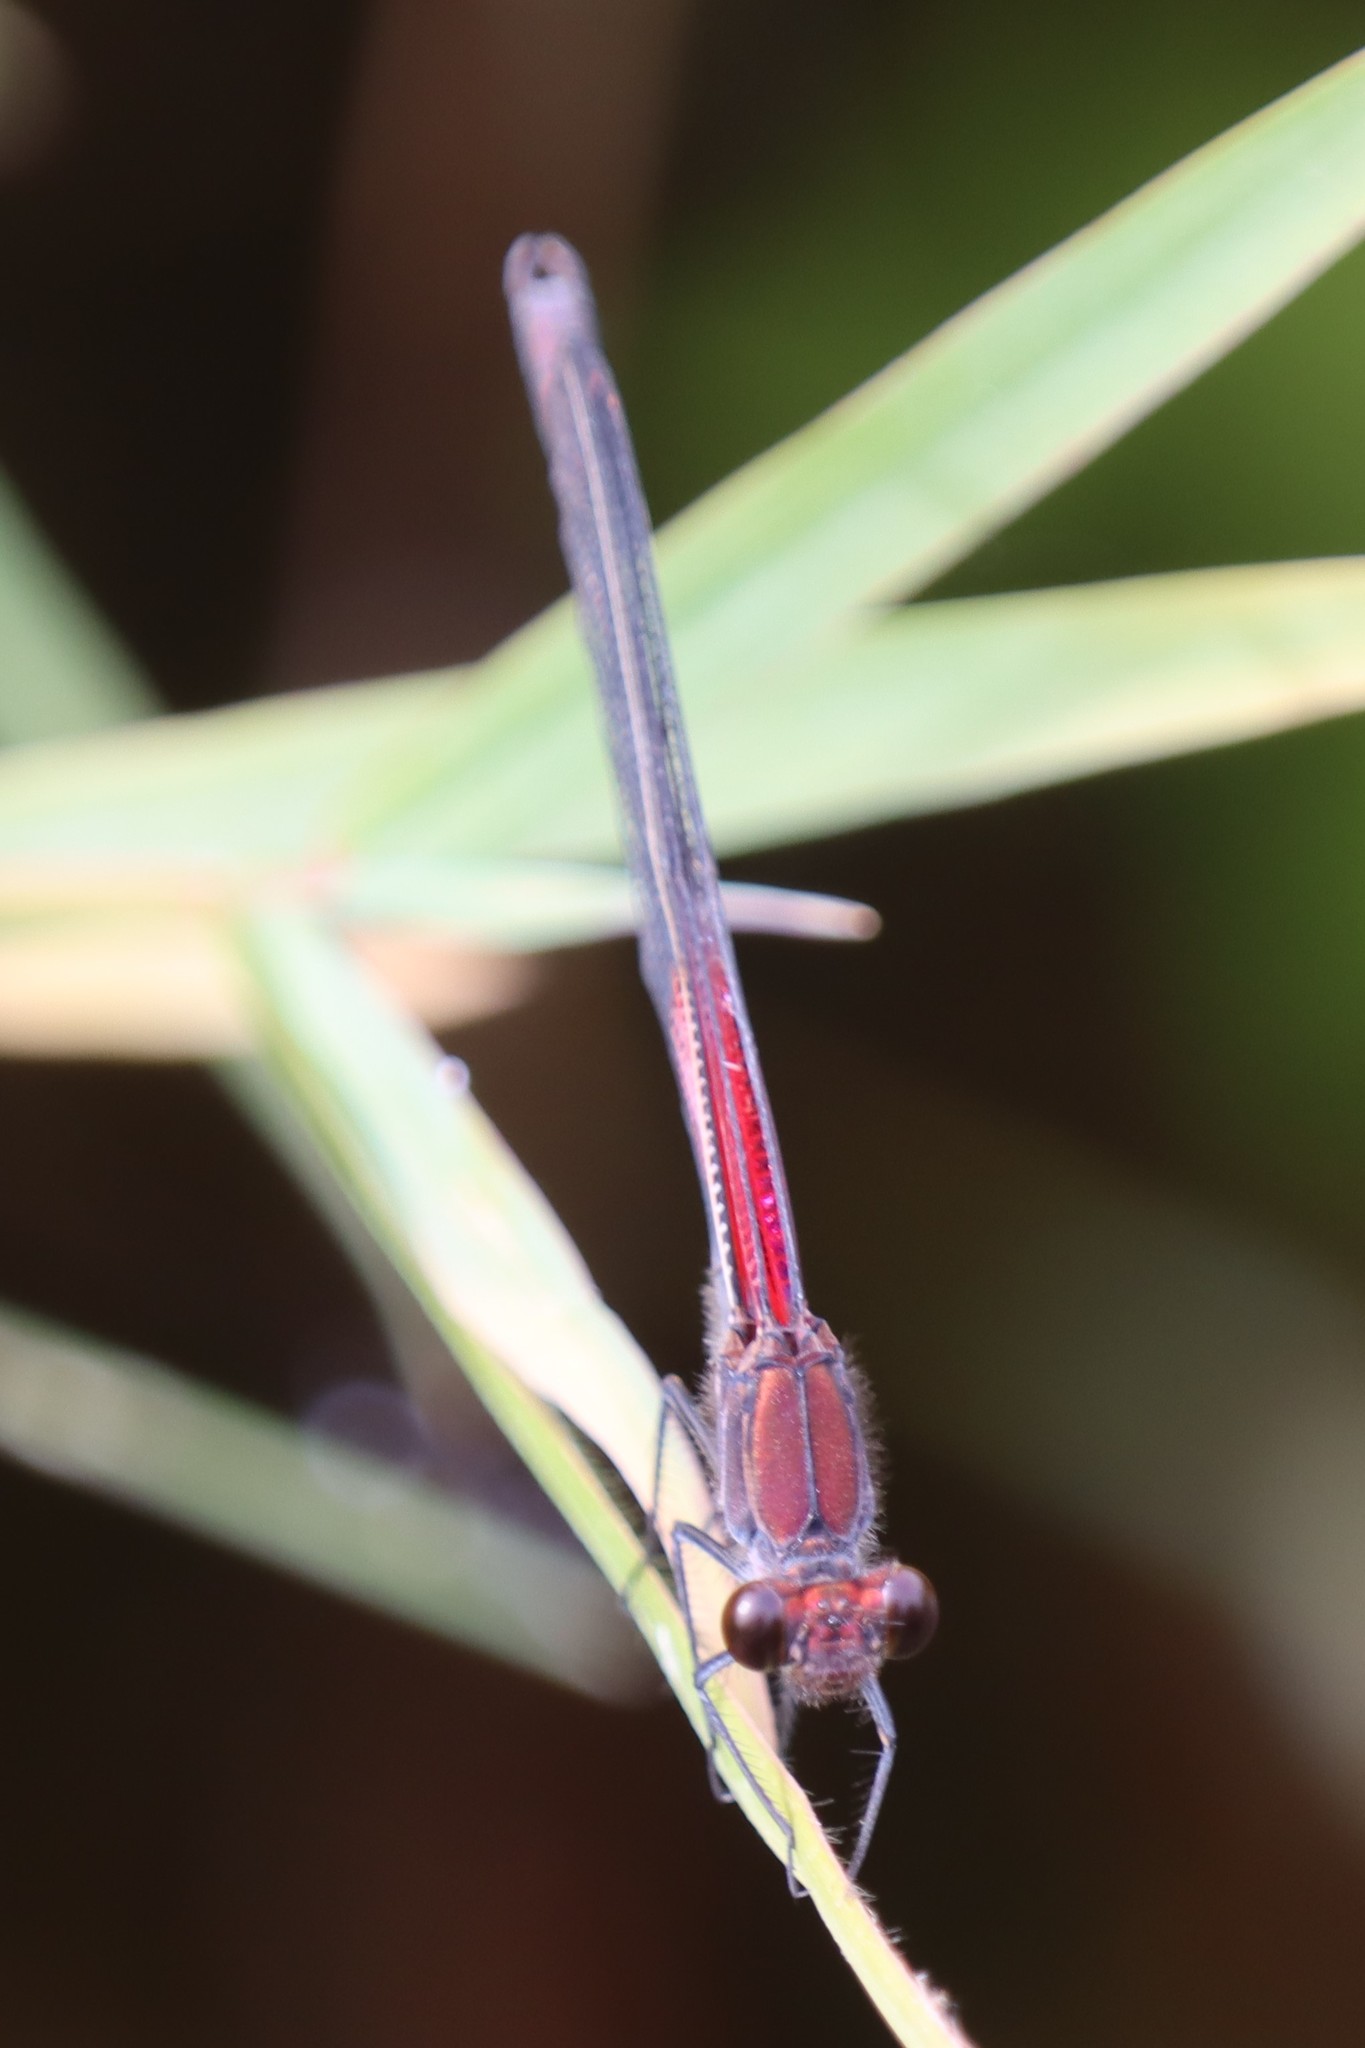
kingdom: Animalia
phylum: Arthropoda
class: Insecta
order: Odonata
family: Calopterygidae
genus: Hetaerina
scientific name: Hetaerina americana
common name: American rubyspot
